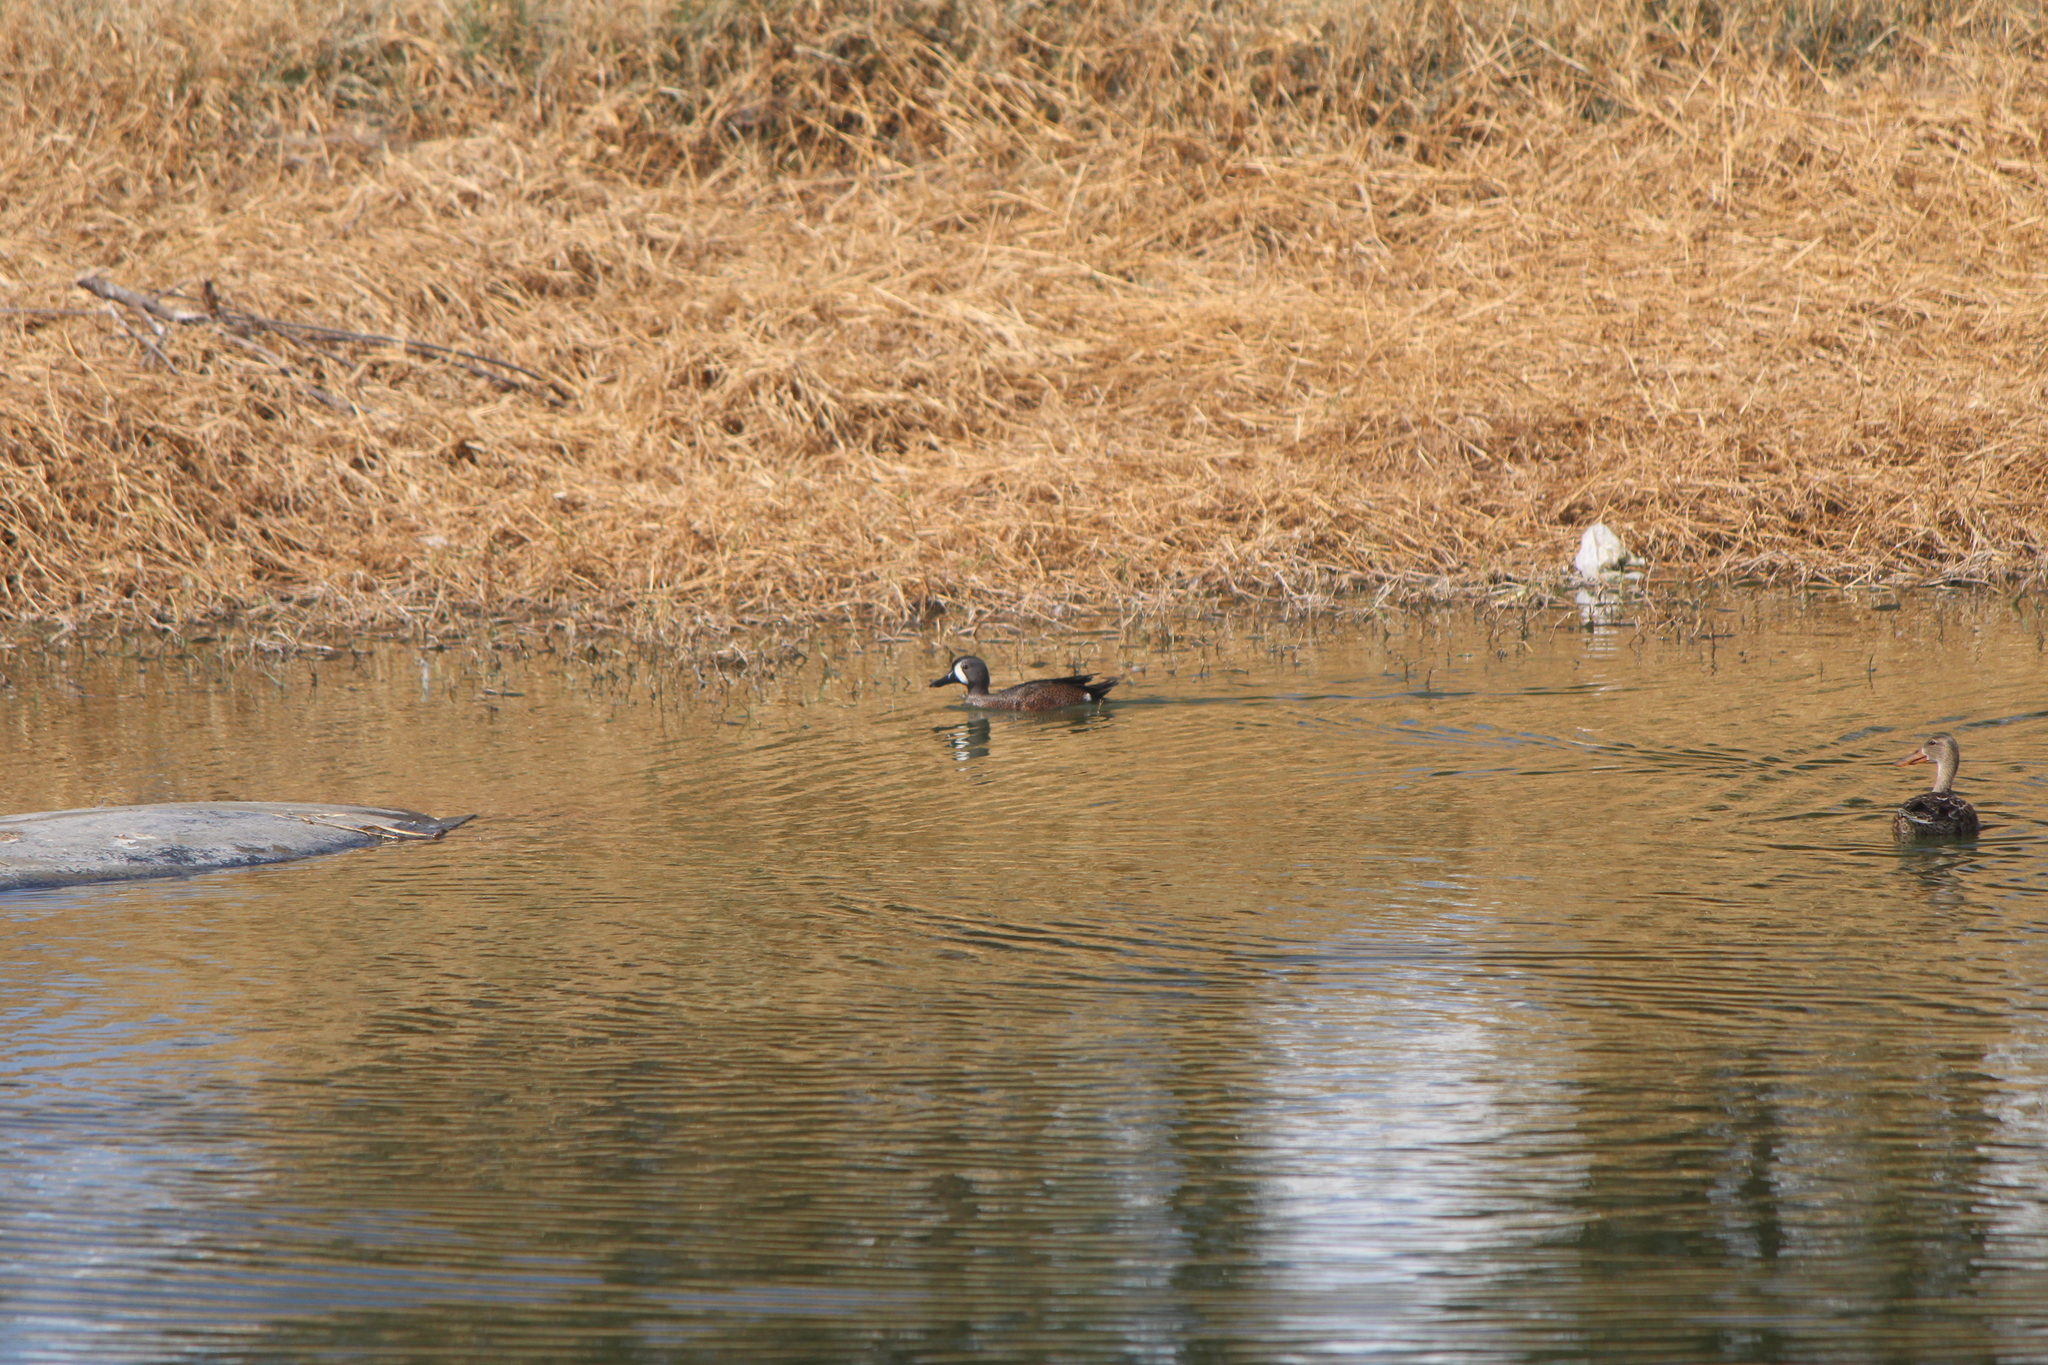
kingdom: Animalia
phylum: Chordata
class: Aves
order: Anseriformes
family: Anatidae
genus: Spatula
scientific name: Spatula discors
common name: Blue-winged teal
